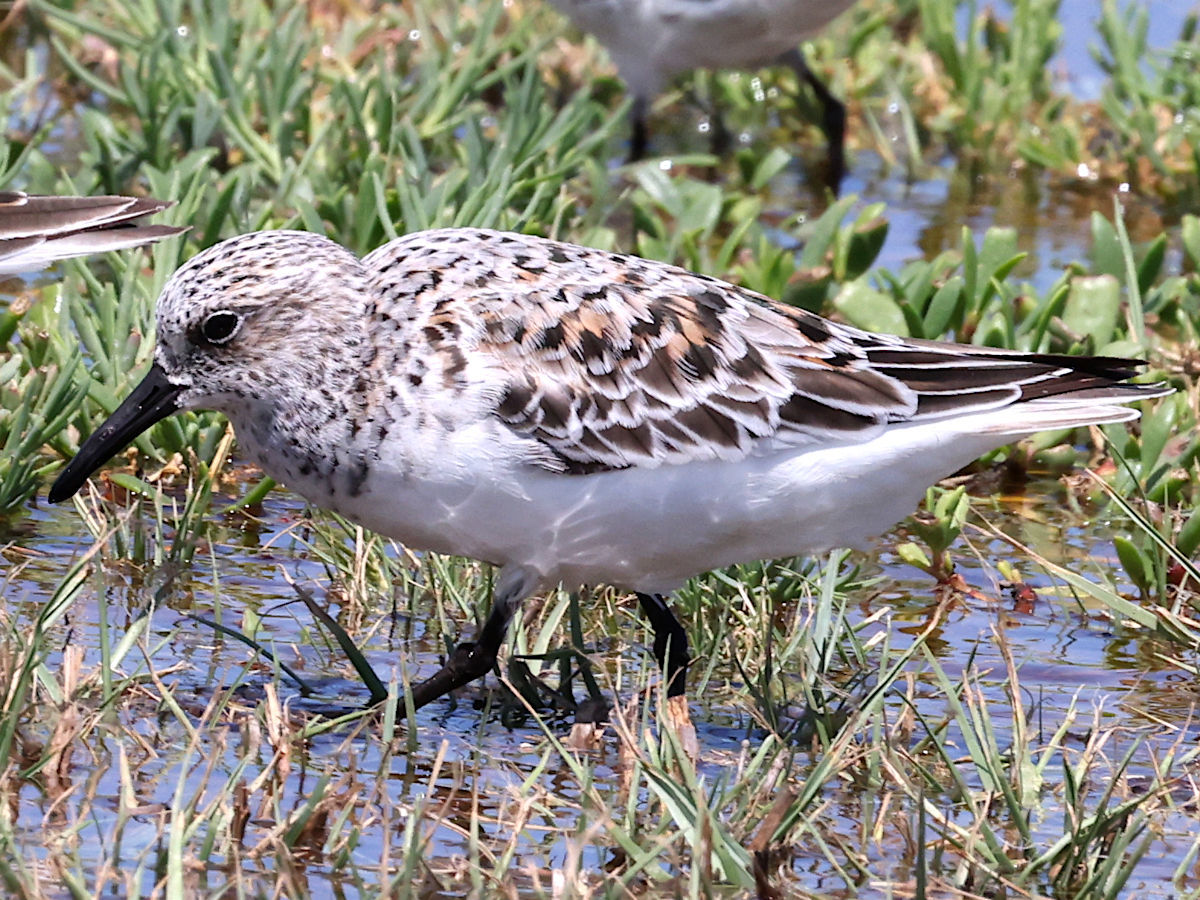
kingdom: Animalia
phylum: Chordata
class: Aves
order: Charadriiformes
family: Scolopacidae
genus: Calidris
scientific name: Calidris alba
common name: Sanderling
